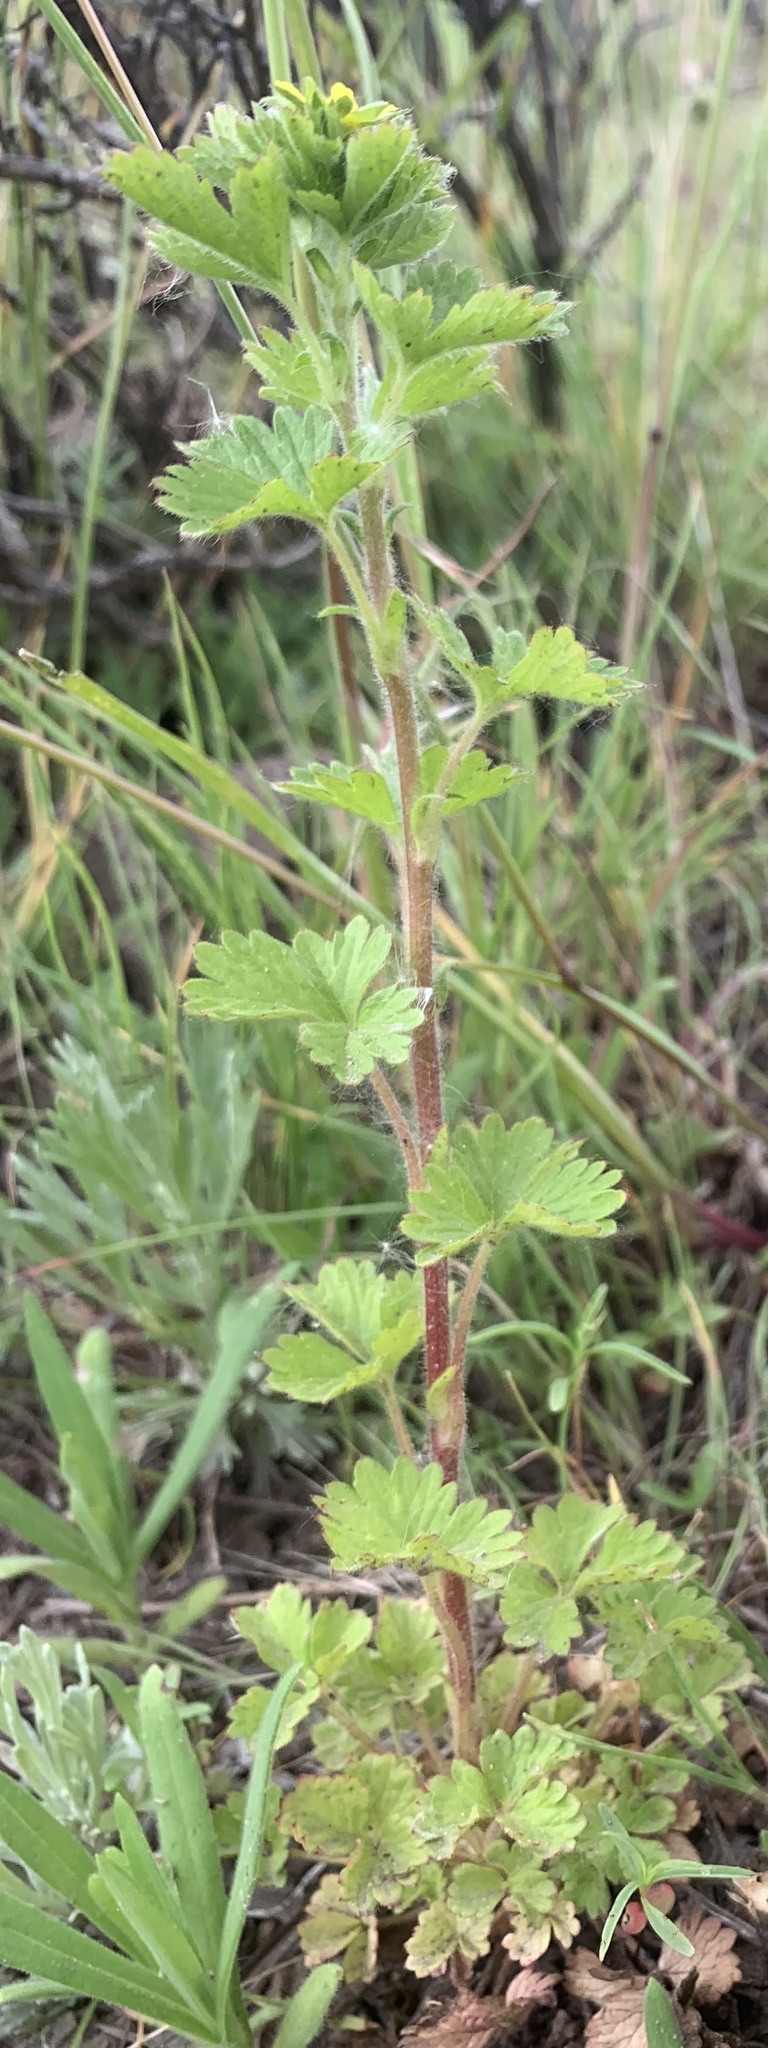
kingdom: Plantae
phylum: Tracheophyta
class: Magnoliopsida
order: Rosales
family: Rosaceae
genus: Potentilla
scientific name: Potentilla biennis
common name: Greene's cinquefoil
